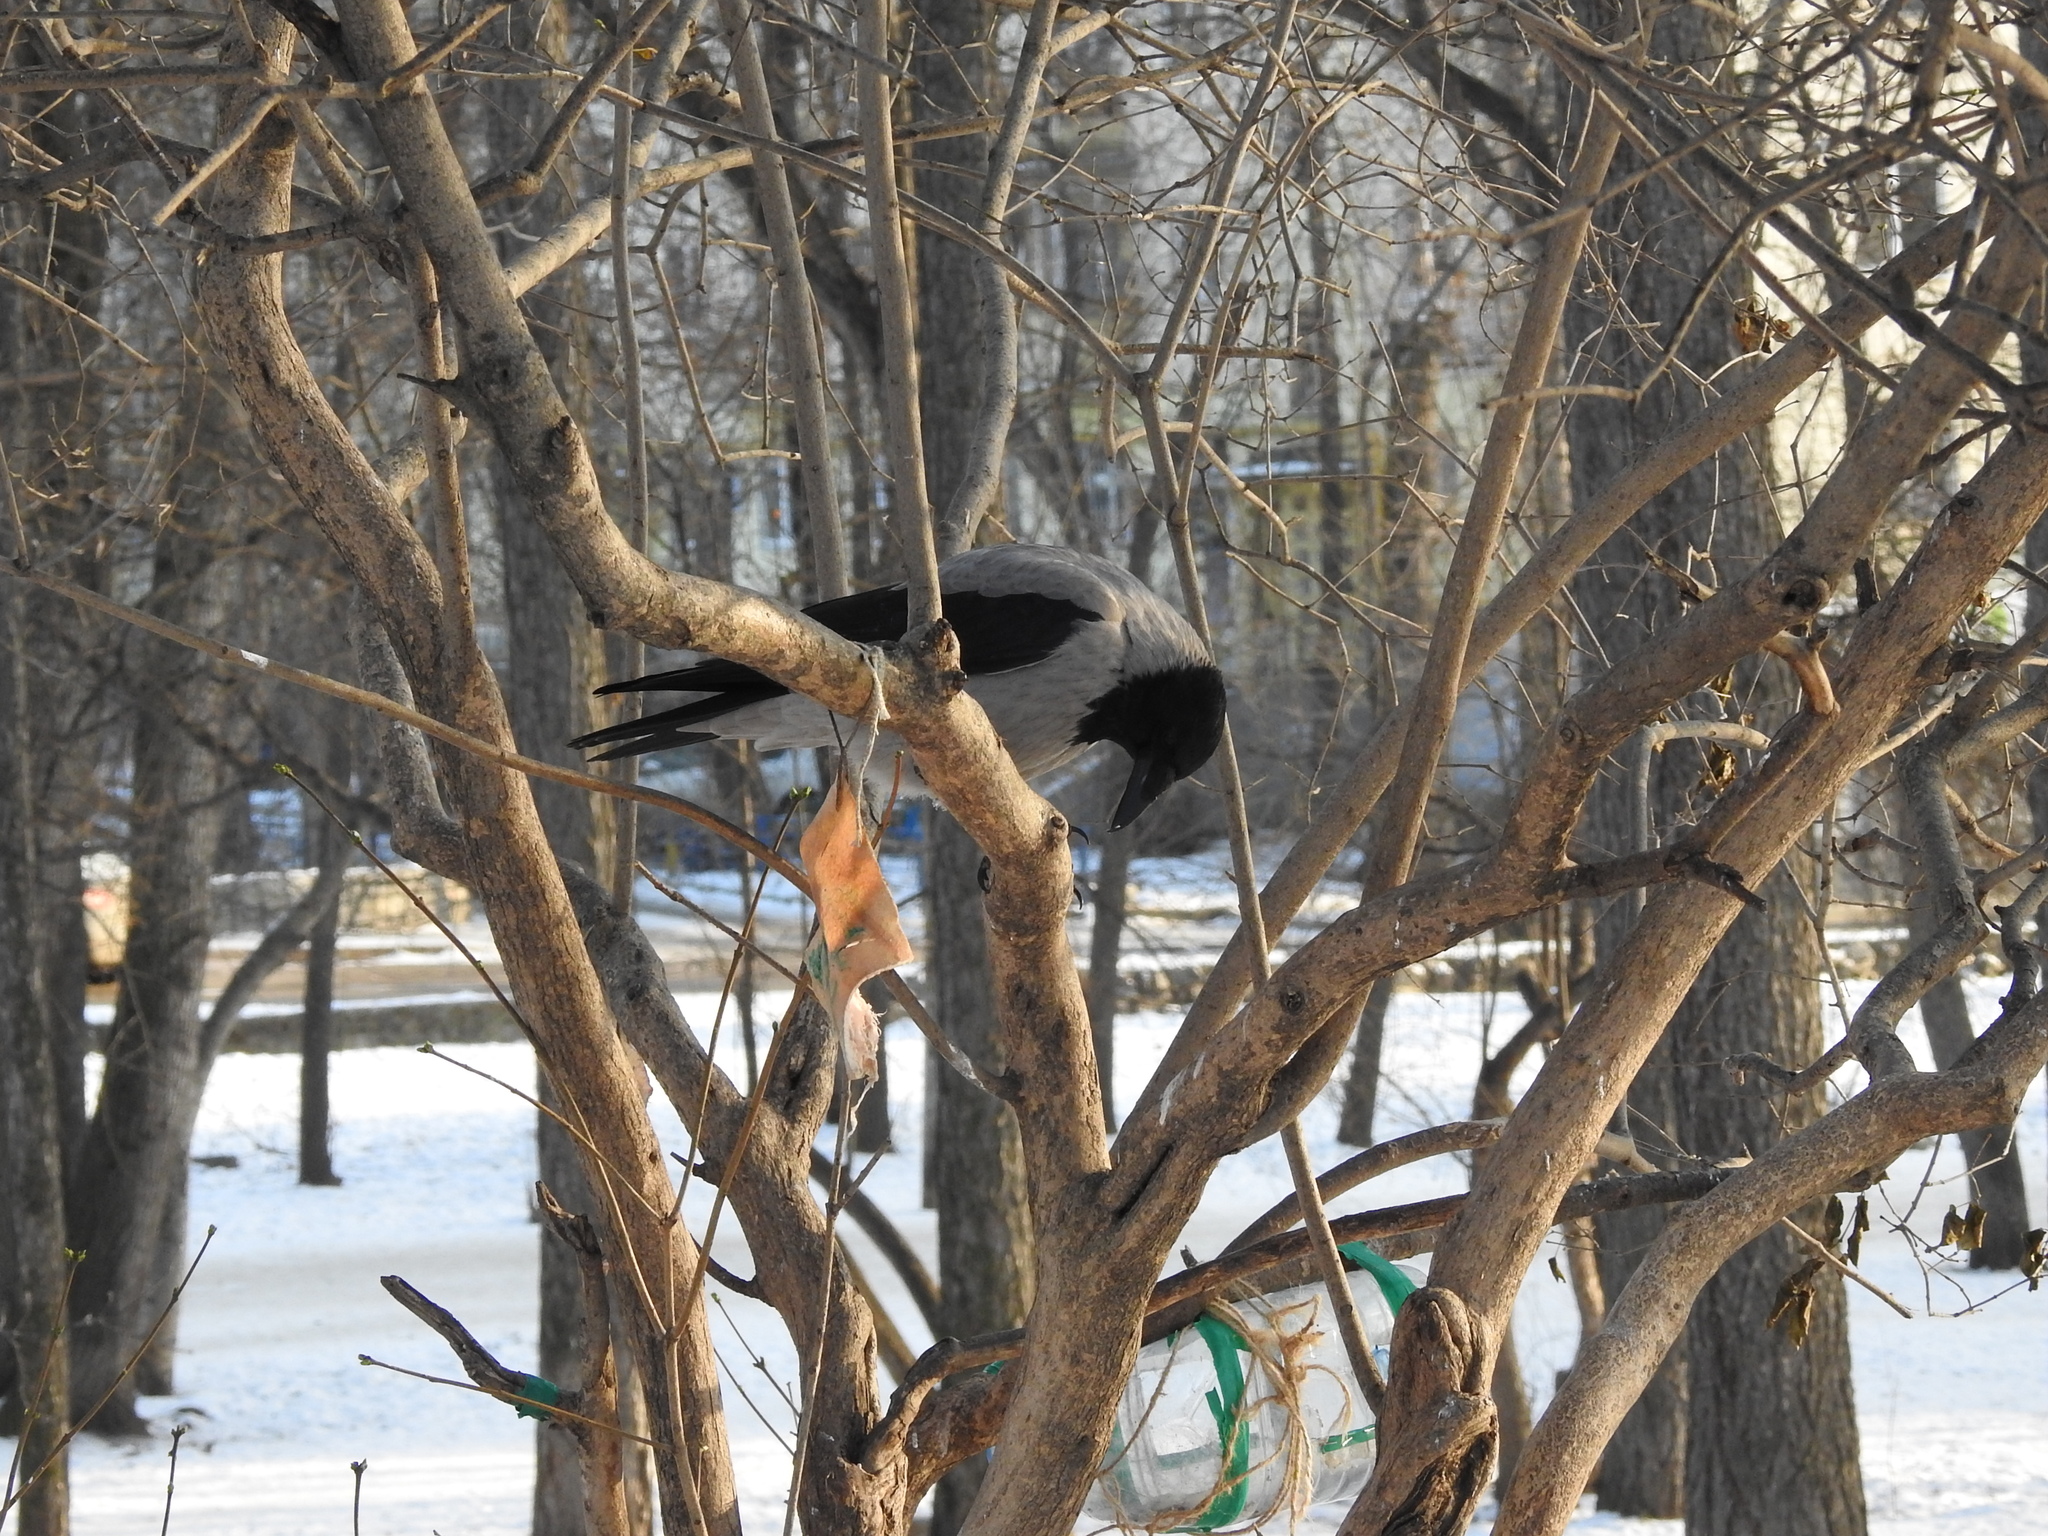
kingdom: Animalia
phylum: Chordata
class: Aves
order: Passeriformes
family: Corvidae
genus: Corvus
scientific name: Corvus cornix
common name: Hooded crow
